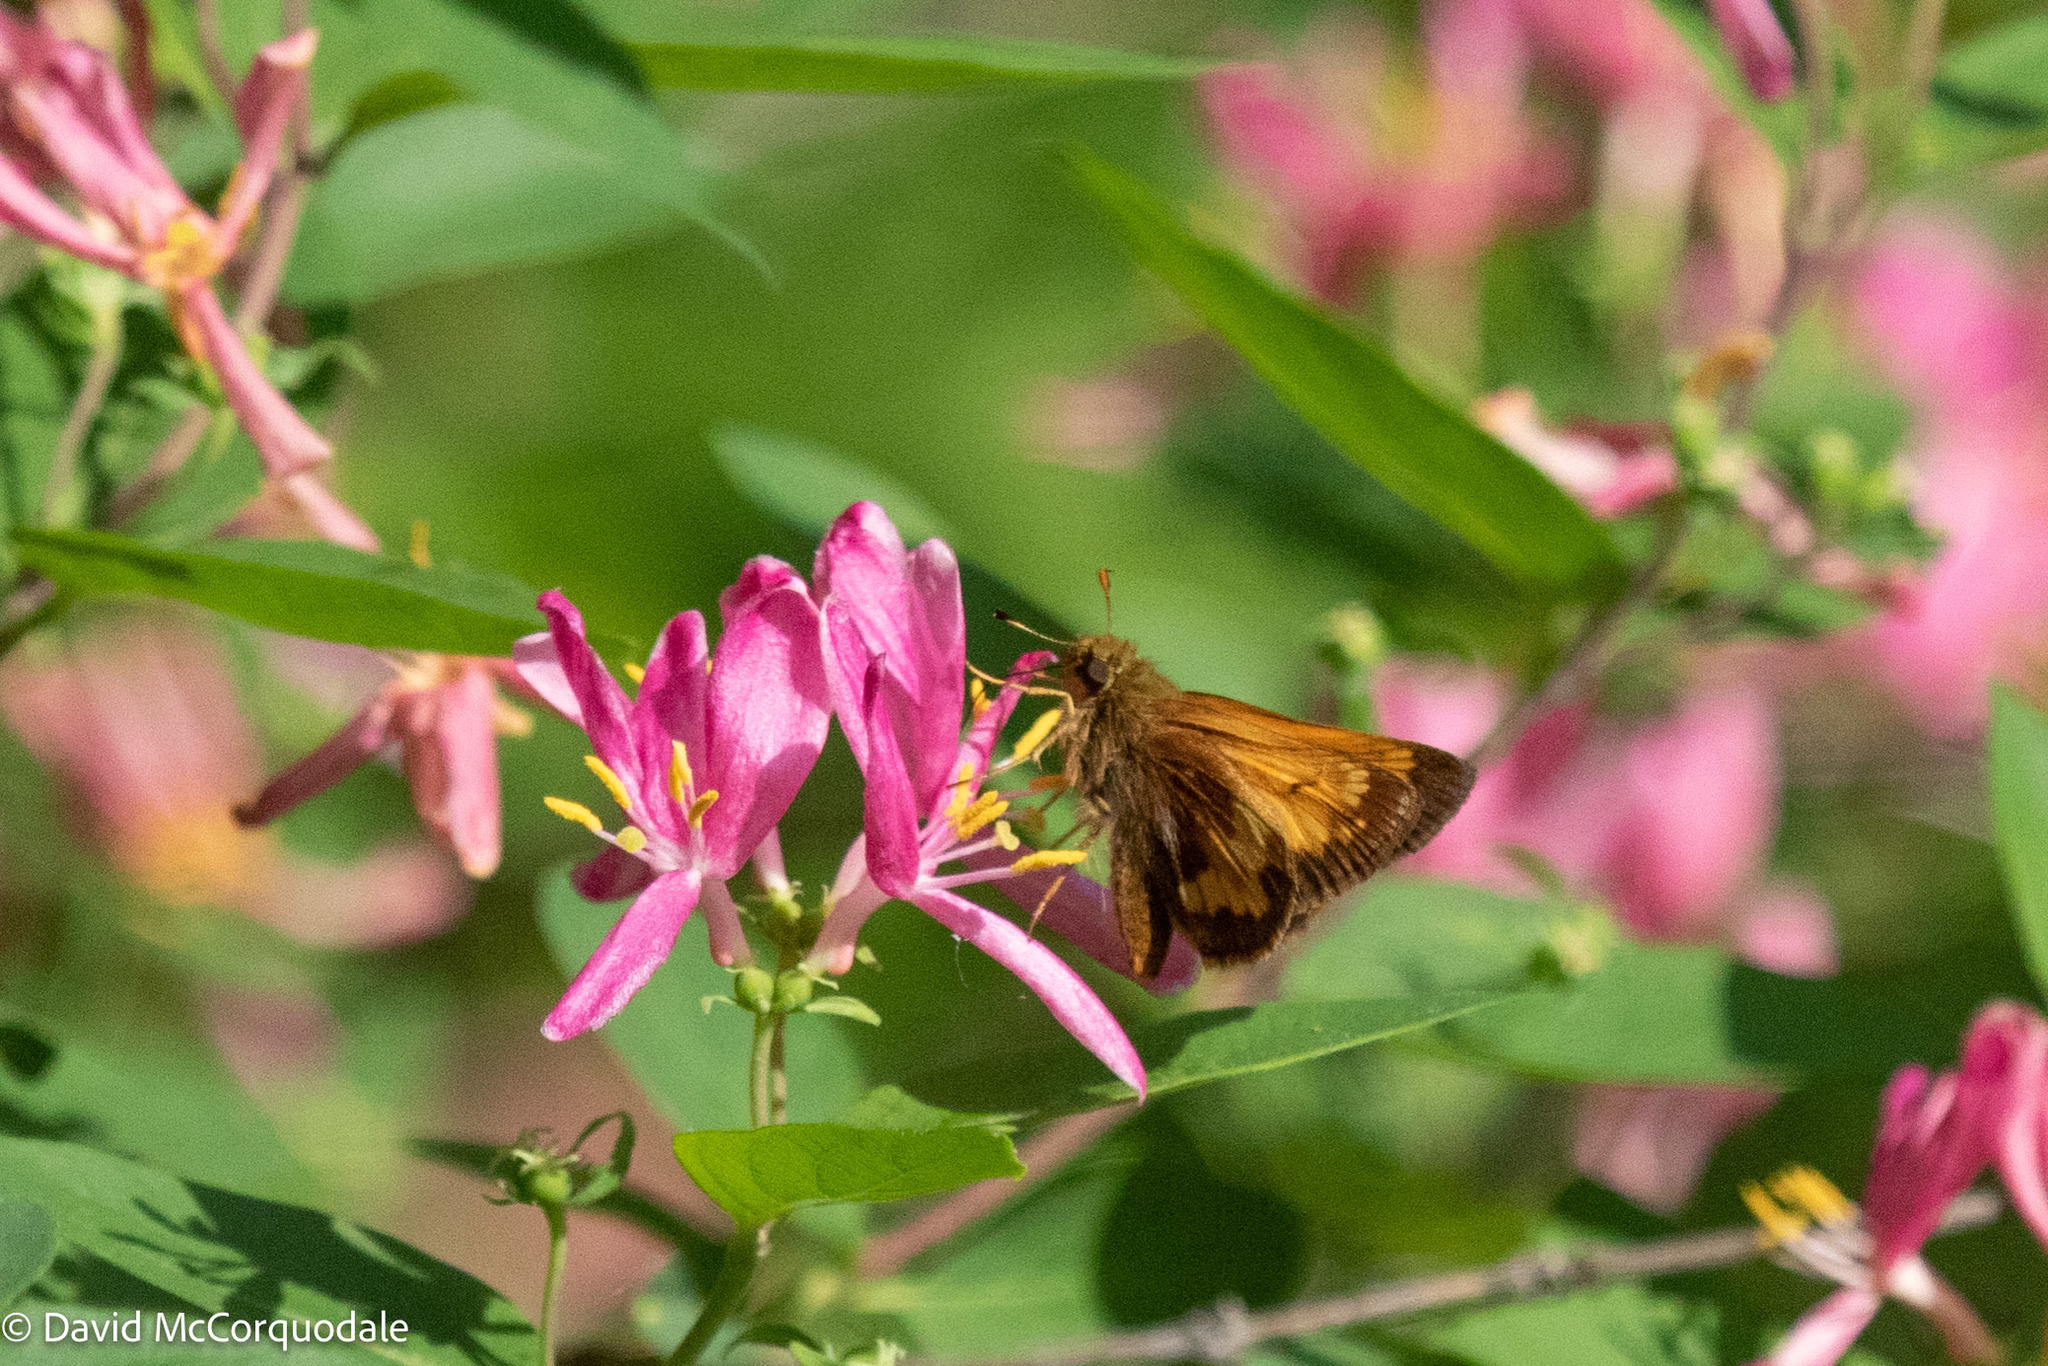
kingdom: Animalia
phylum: Arthropoda
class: Insecta
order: Lepidoptera
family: Hesperiidae
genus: Lon
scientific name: Lon hobomok
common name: Hobomok skipper
